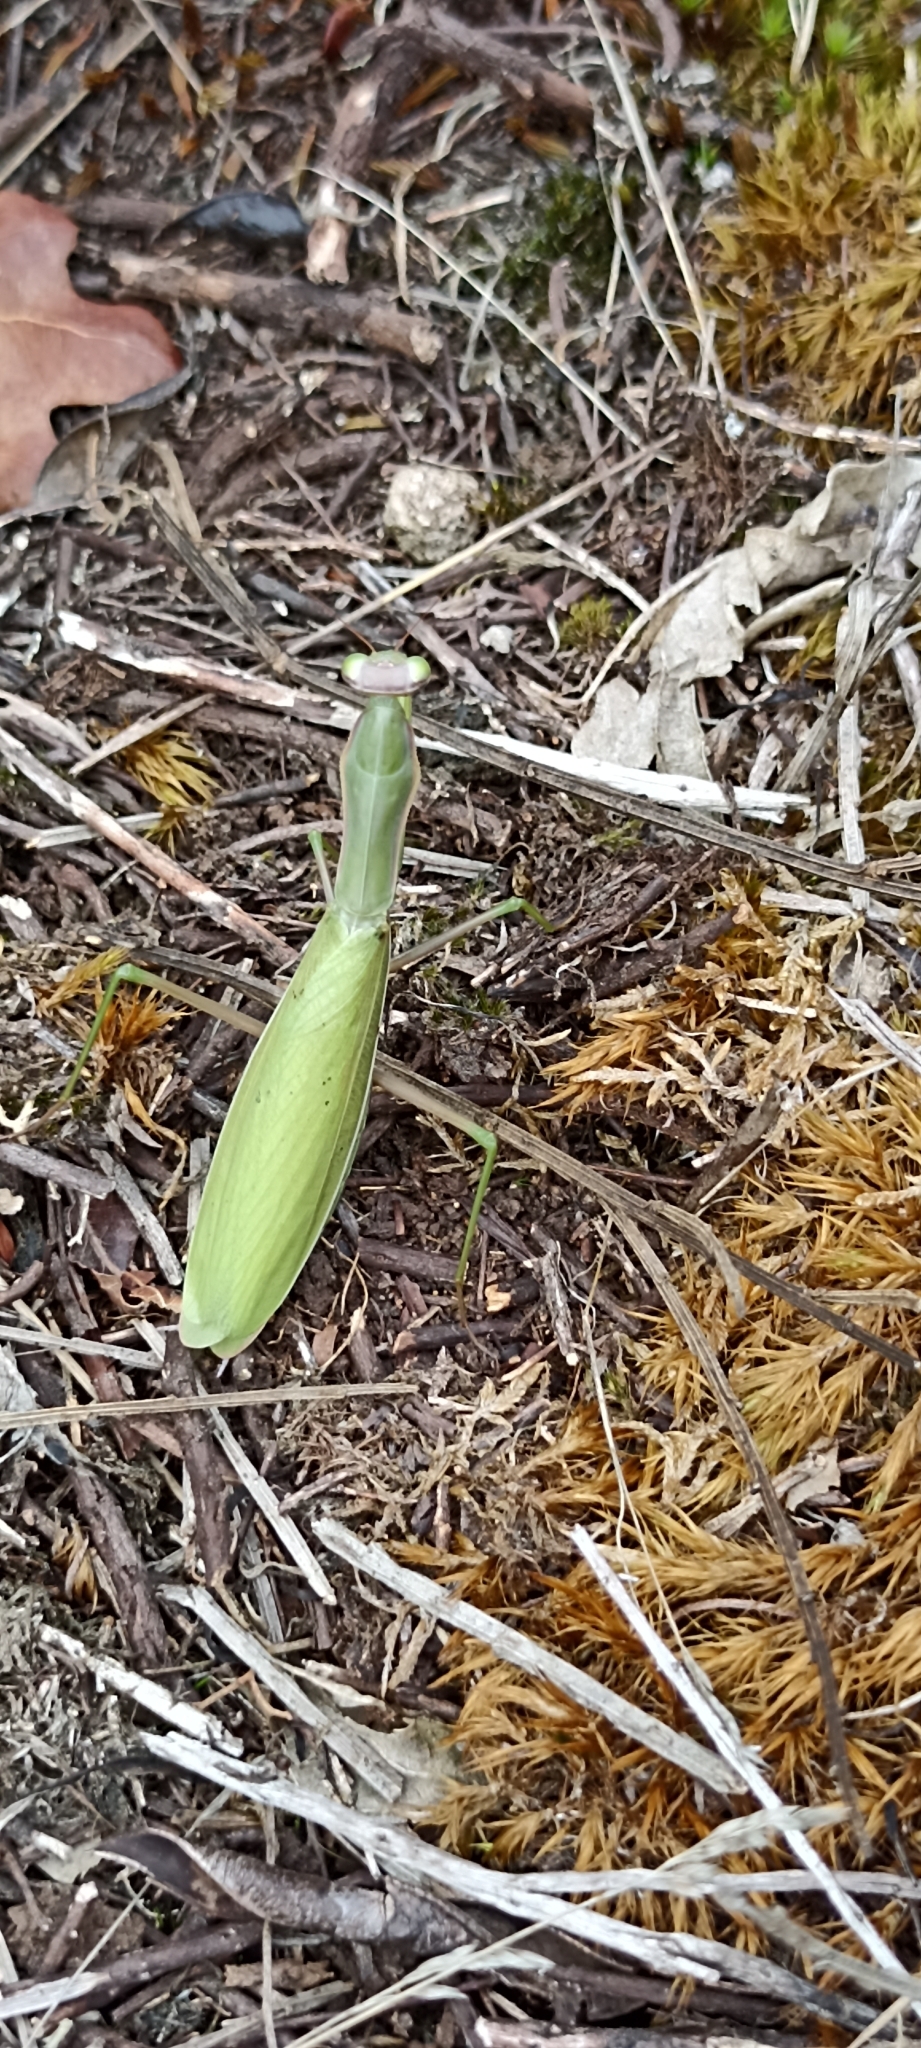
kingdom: Animalia
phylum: Arthropoda
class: Insecta
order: Mantodea
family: Mantidae
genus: Mantis
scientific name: Mantis religiosa
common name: Praying mantis
